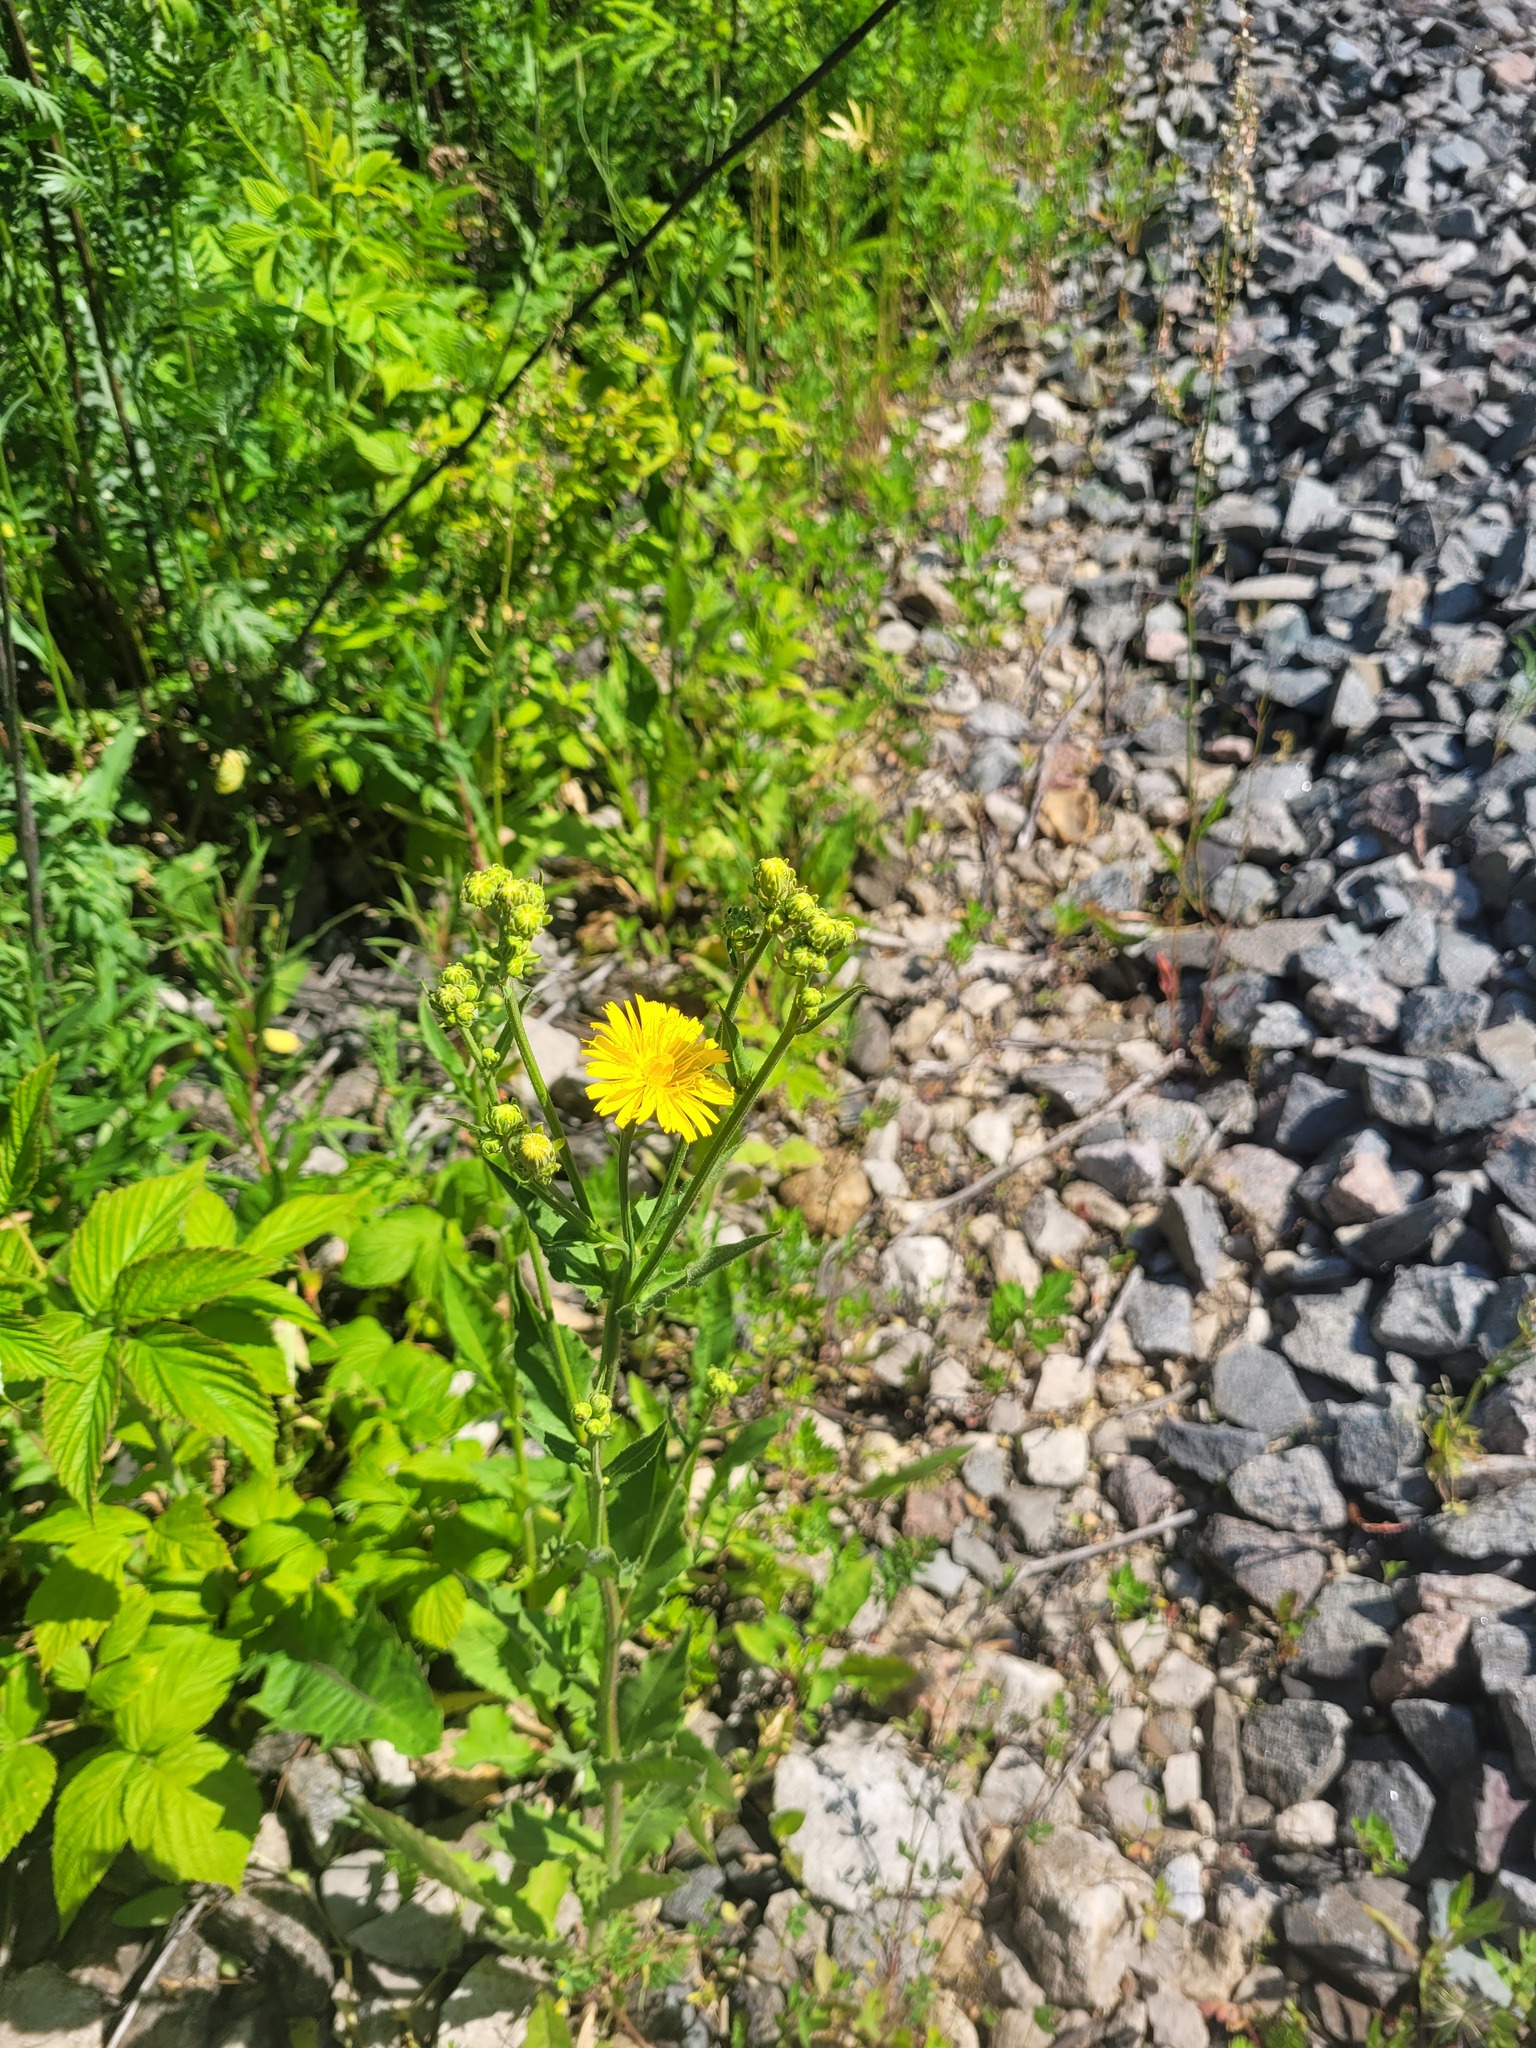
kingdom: Plantae
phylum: Tracheophyta
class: Magnoliopsida
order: Asterales
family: Asteraceae
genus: Picris
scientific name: Picris hieracioides
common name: Hawkweed oxtongue
